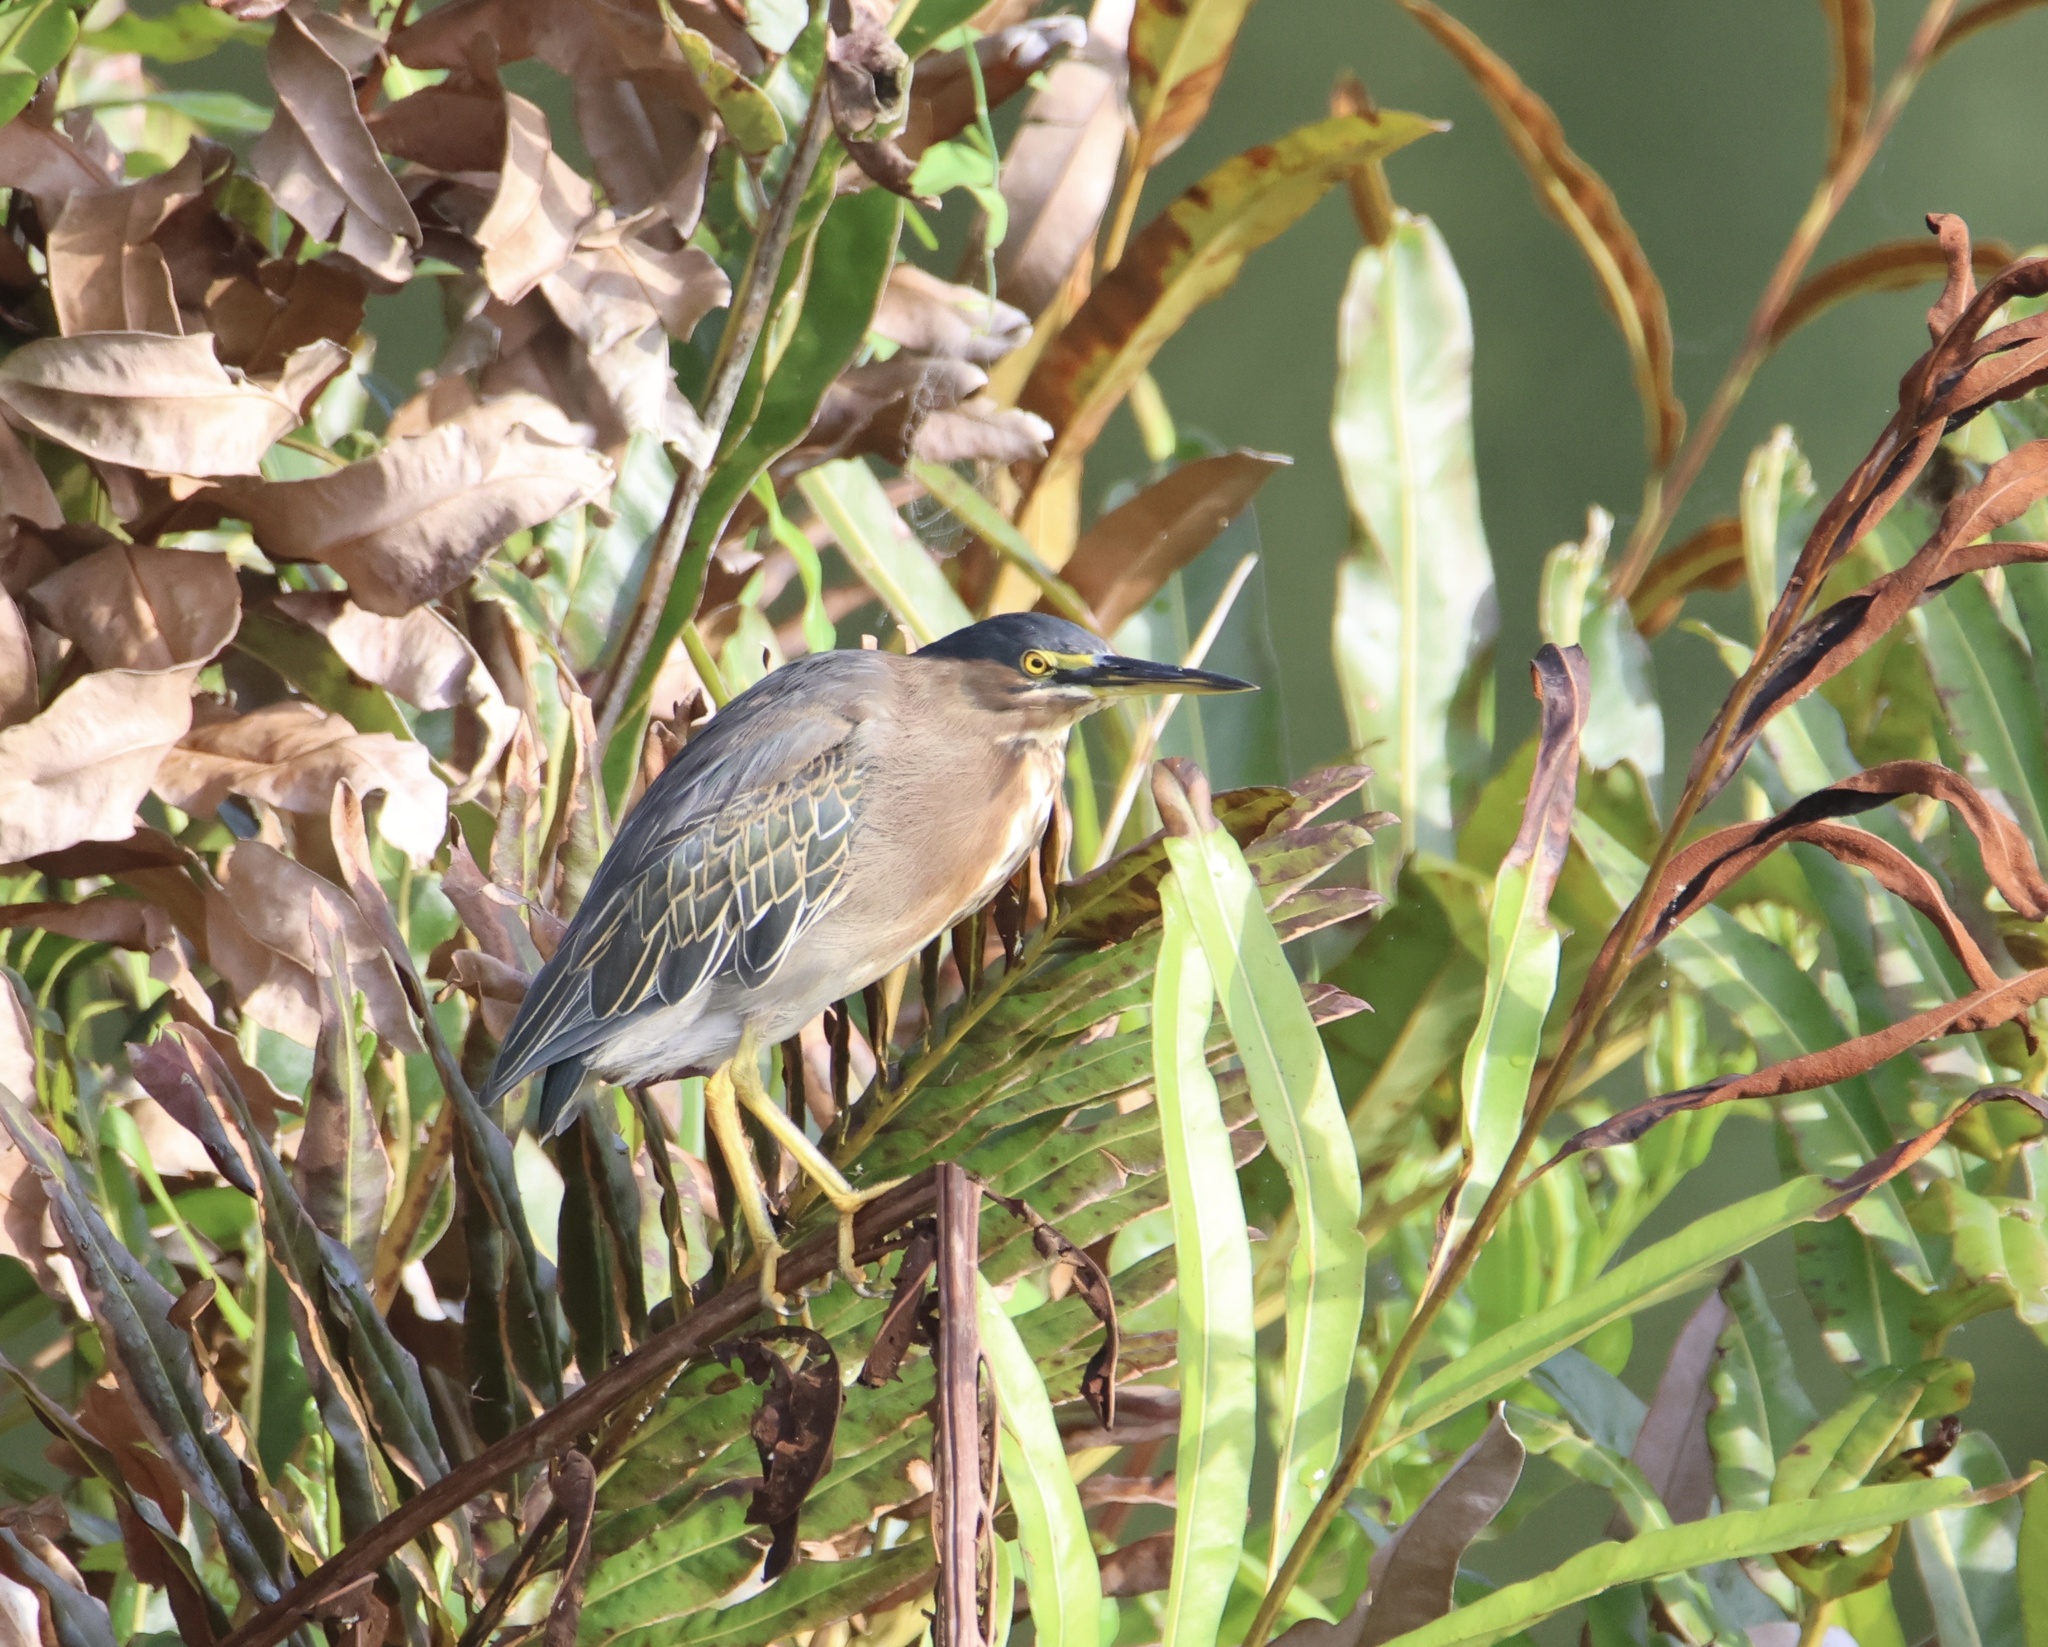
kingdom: Animalia
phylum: Chordata
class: Aves
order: Pelecaniformes
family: Ardeidae
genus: Butorides
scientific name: Butorides virescens
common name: Green heron
